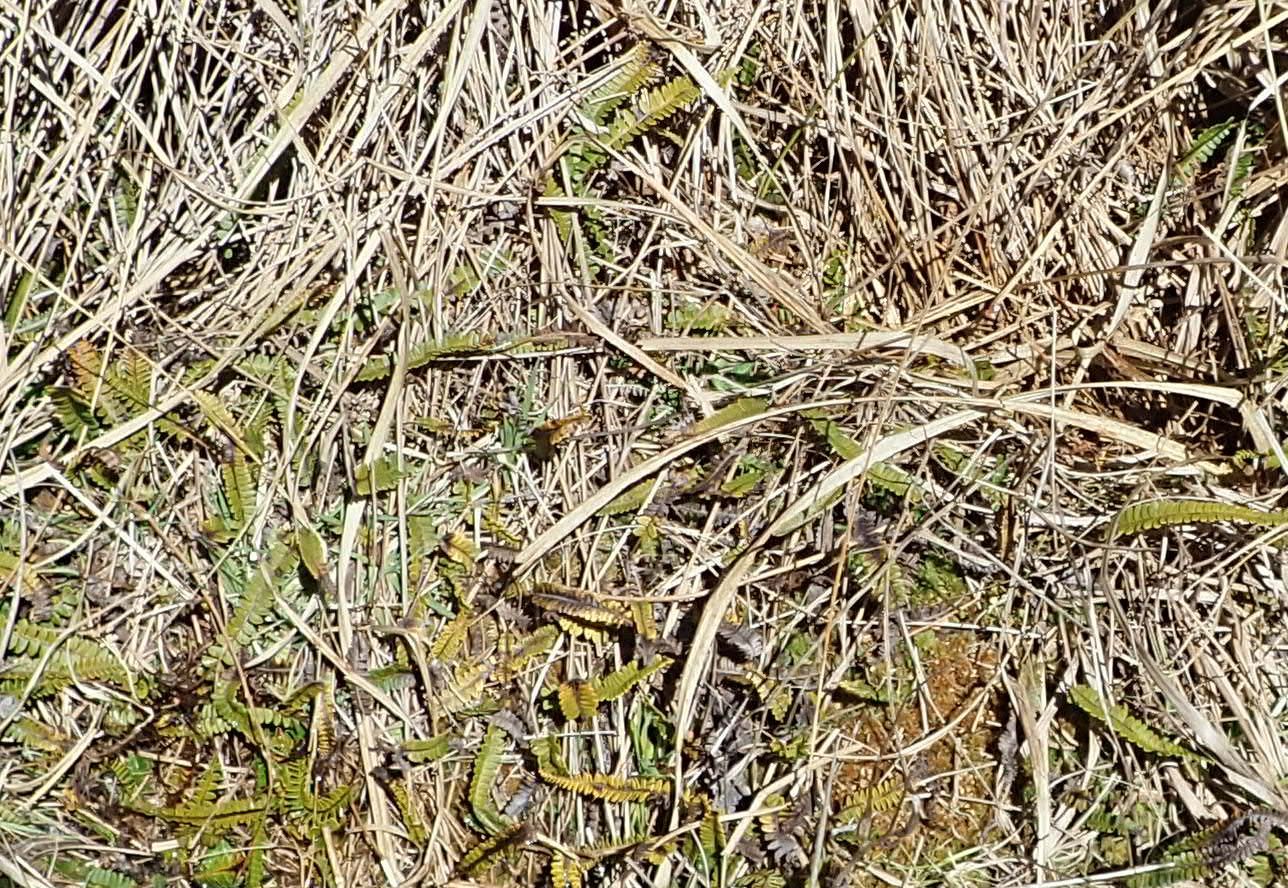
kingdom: Plantae
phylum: Tracheophyta
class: Polypodiopsida
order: Polypodiales
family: Blechnaceae
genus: Austroblechnum
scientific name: Austroblechnum penna-marina
